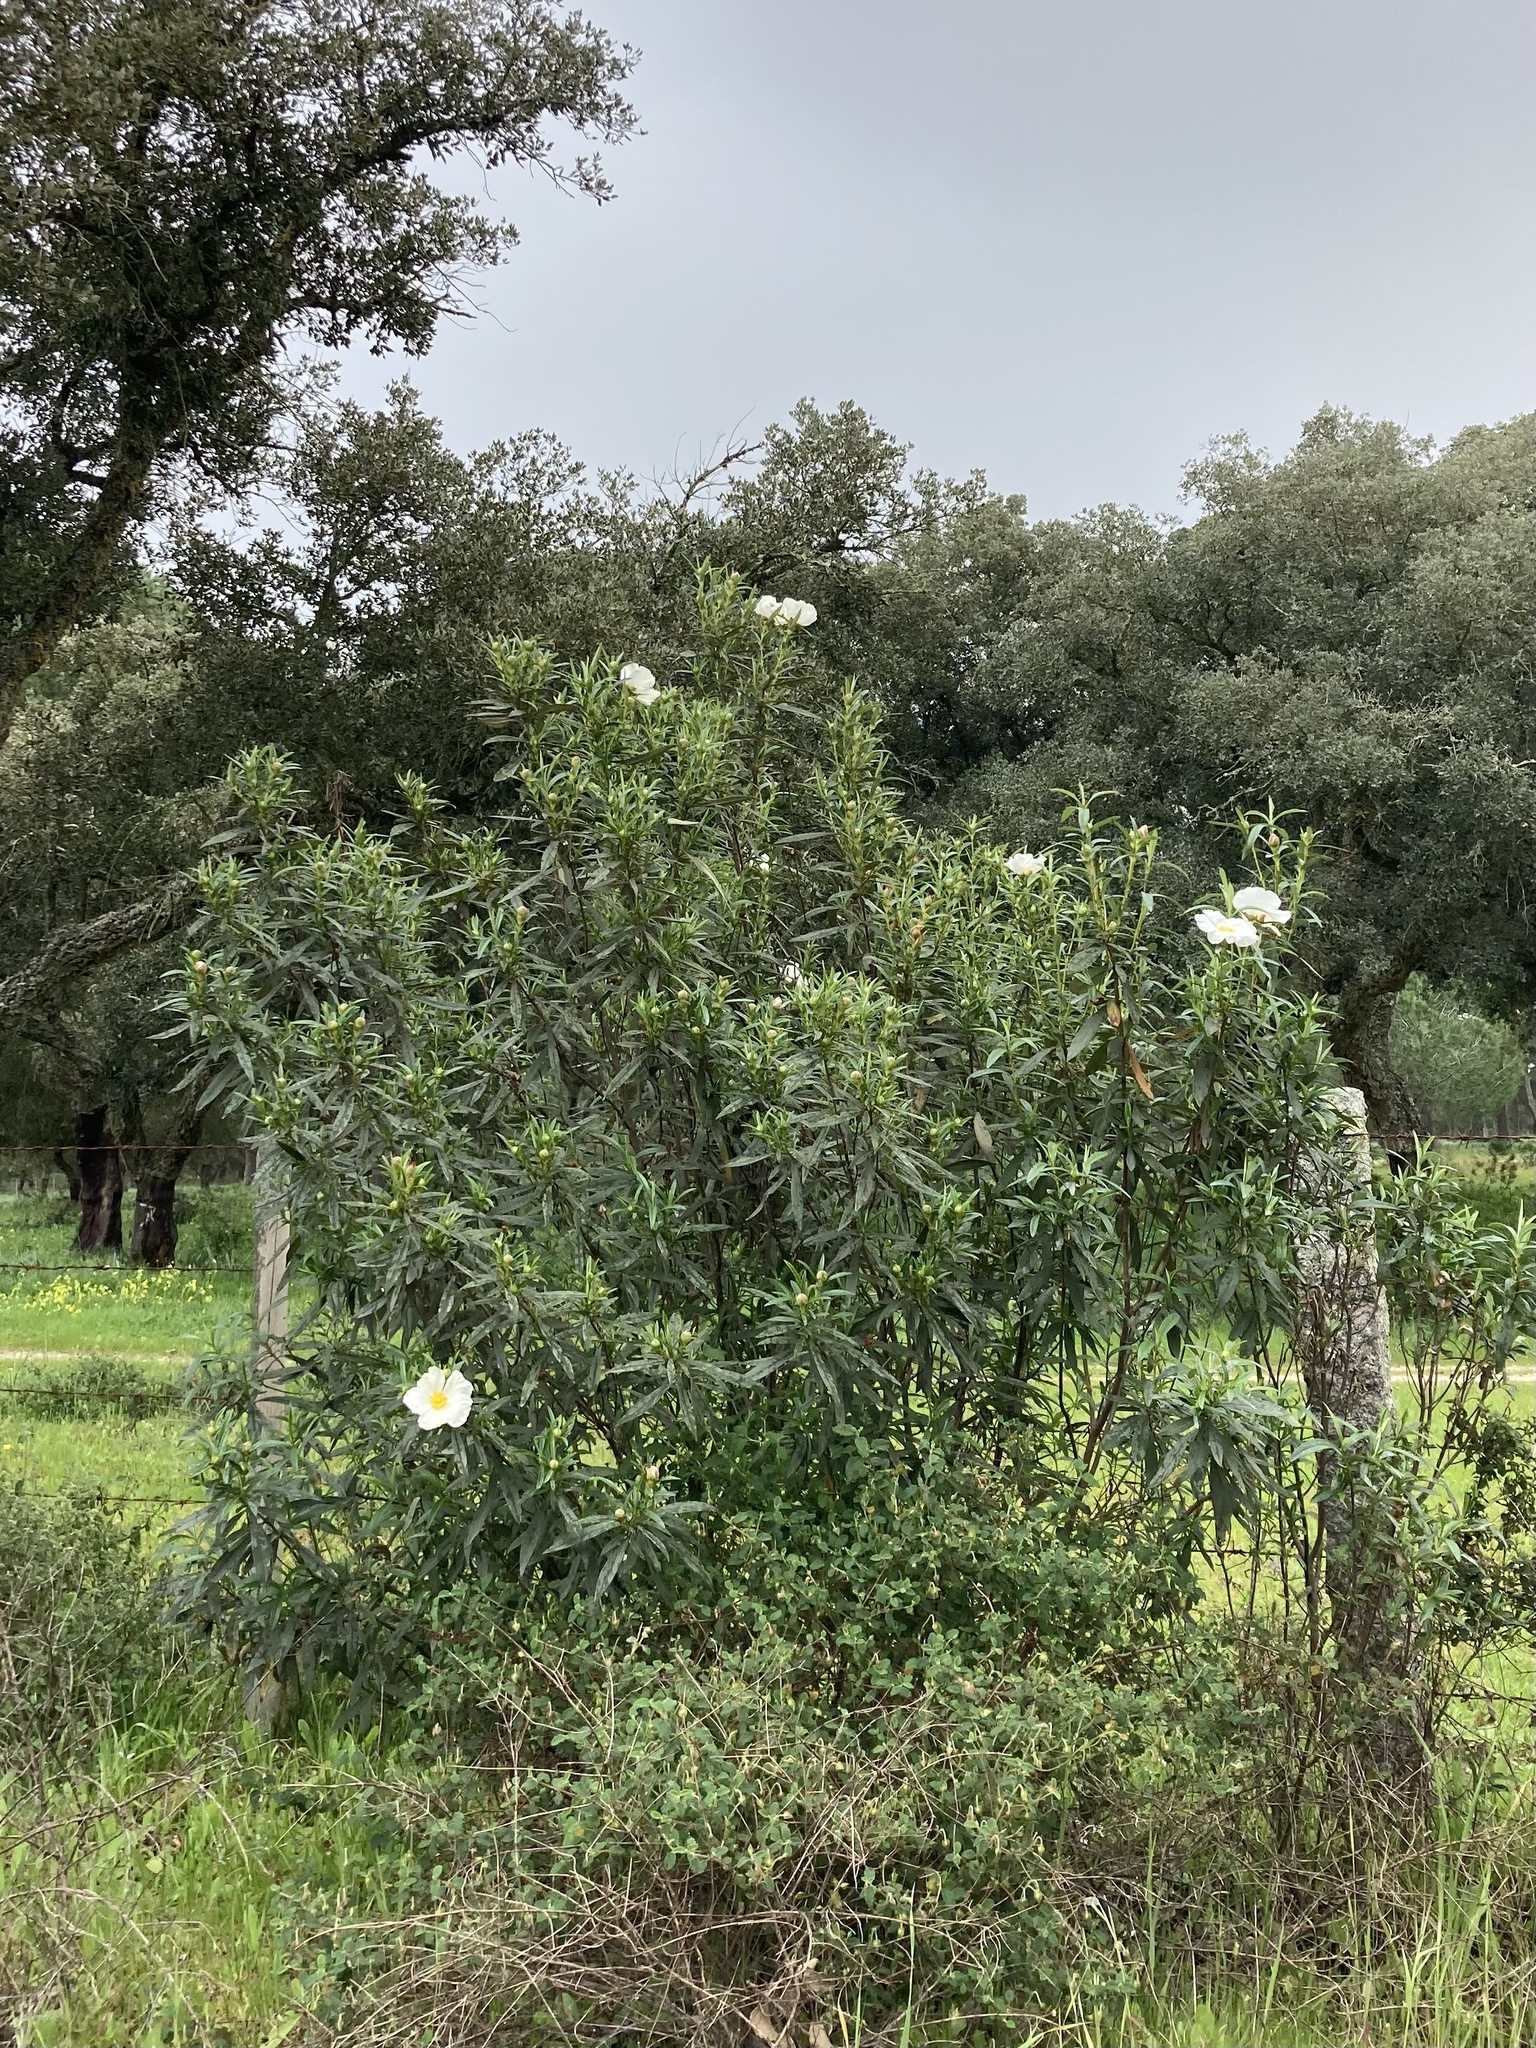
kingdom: Plantae
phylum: Tracheophyta
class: Magnoliopsida
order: Malvales
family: Cistaceae
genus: Cistus
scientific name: Cistus ladanifer
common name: Common gum cistus
